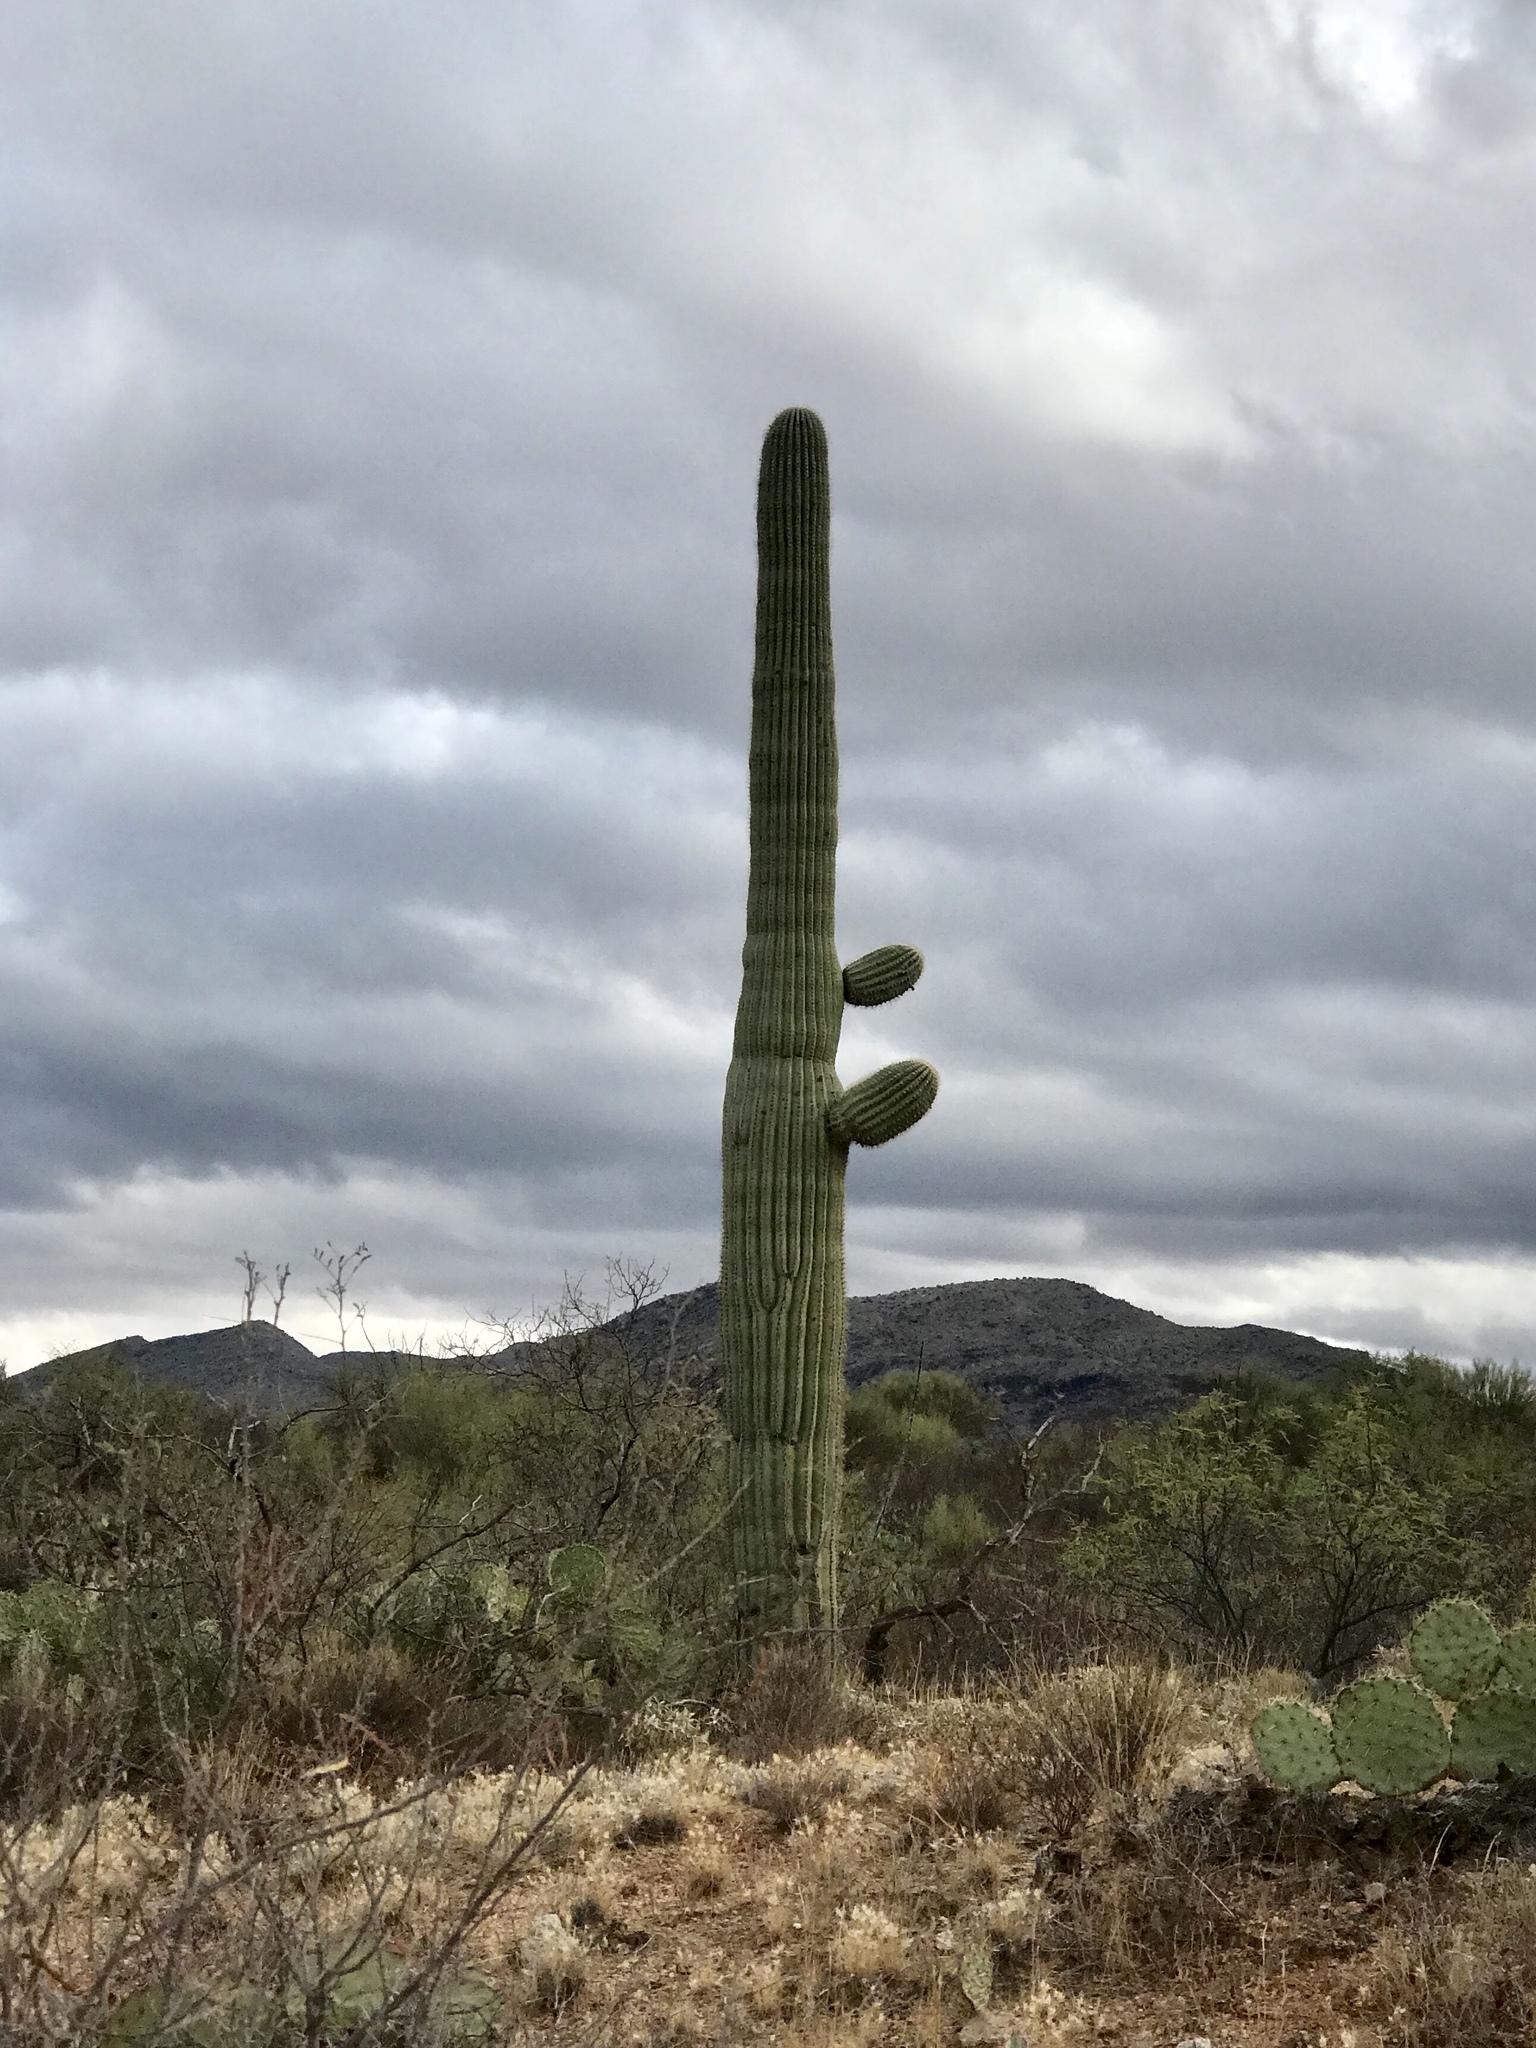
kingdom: Plantae
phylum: Tracheophyta
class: Magnoliopsida
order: Caryophyllales
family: Cactaceae
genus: Carnegiea
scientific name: Carnegiea gigantea
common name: Saguaro
